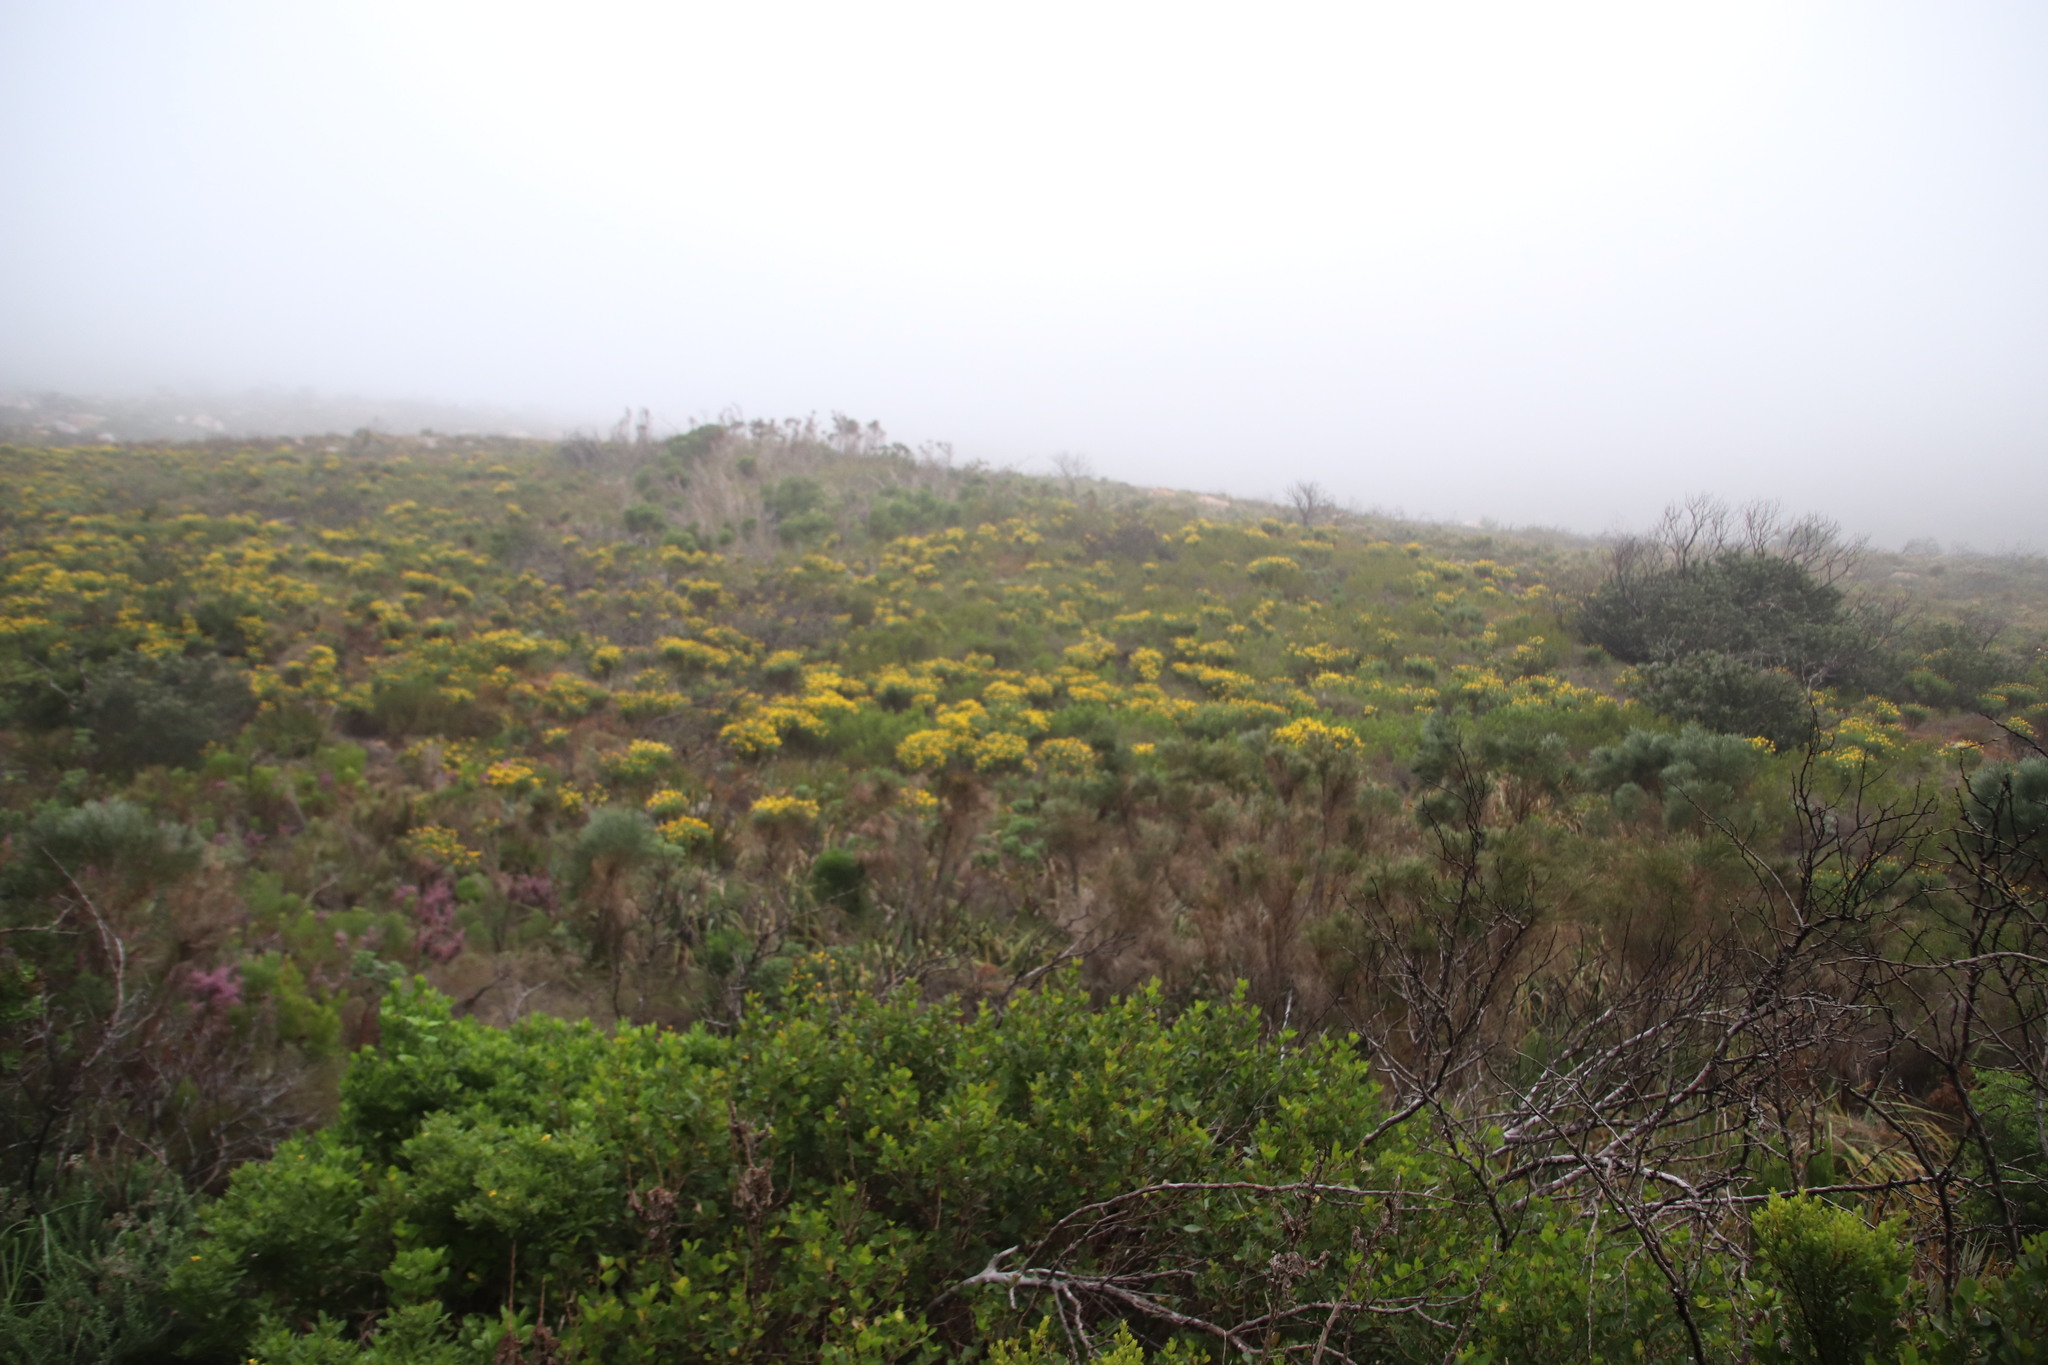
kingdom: Plantae
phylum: Tracheophyta
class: Magnoliopsida
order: Asterales
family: Asteraceae
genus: Euryops
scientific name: Euryops abrotanifolius
